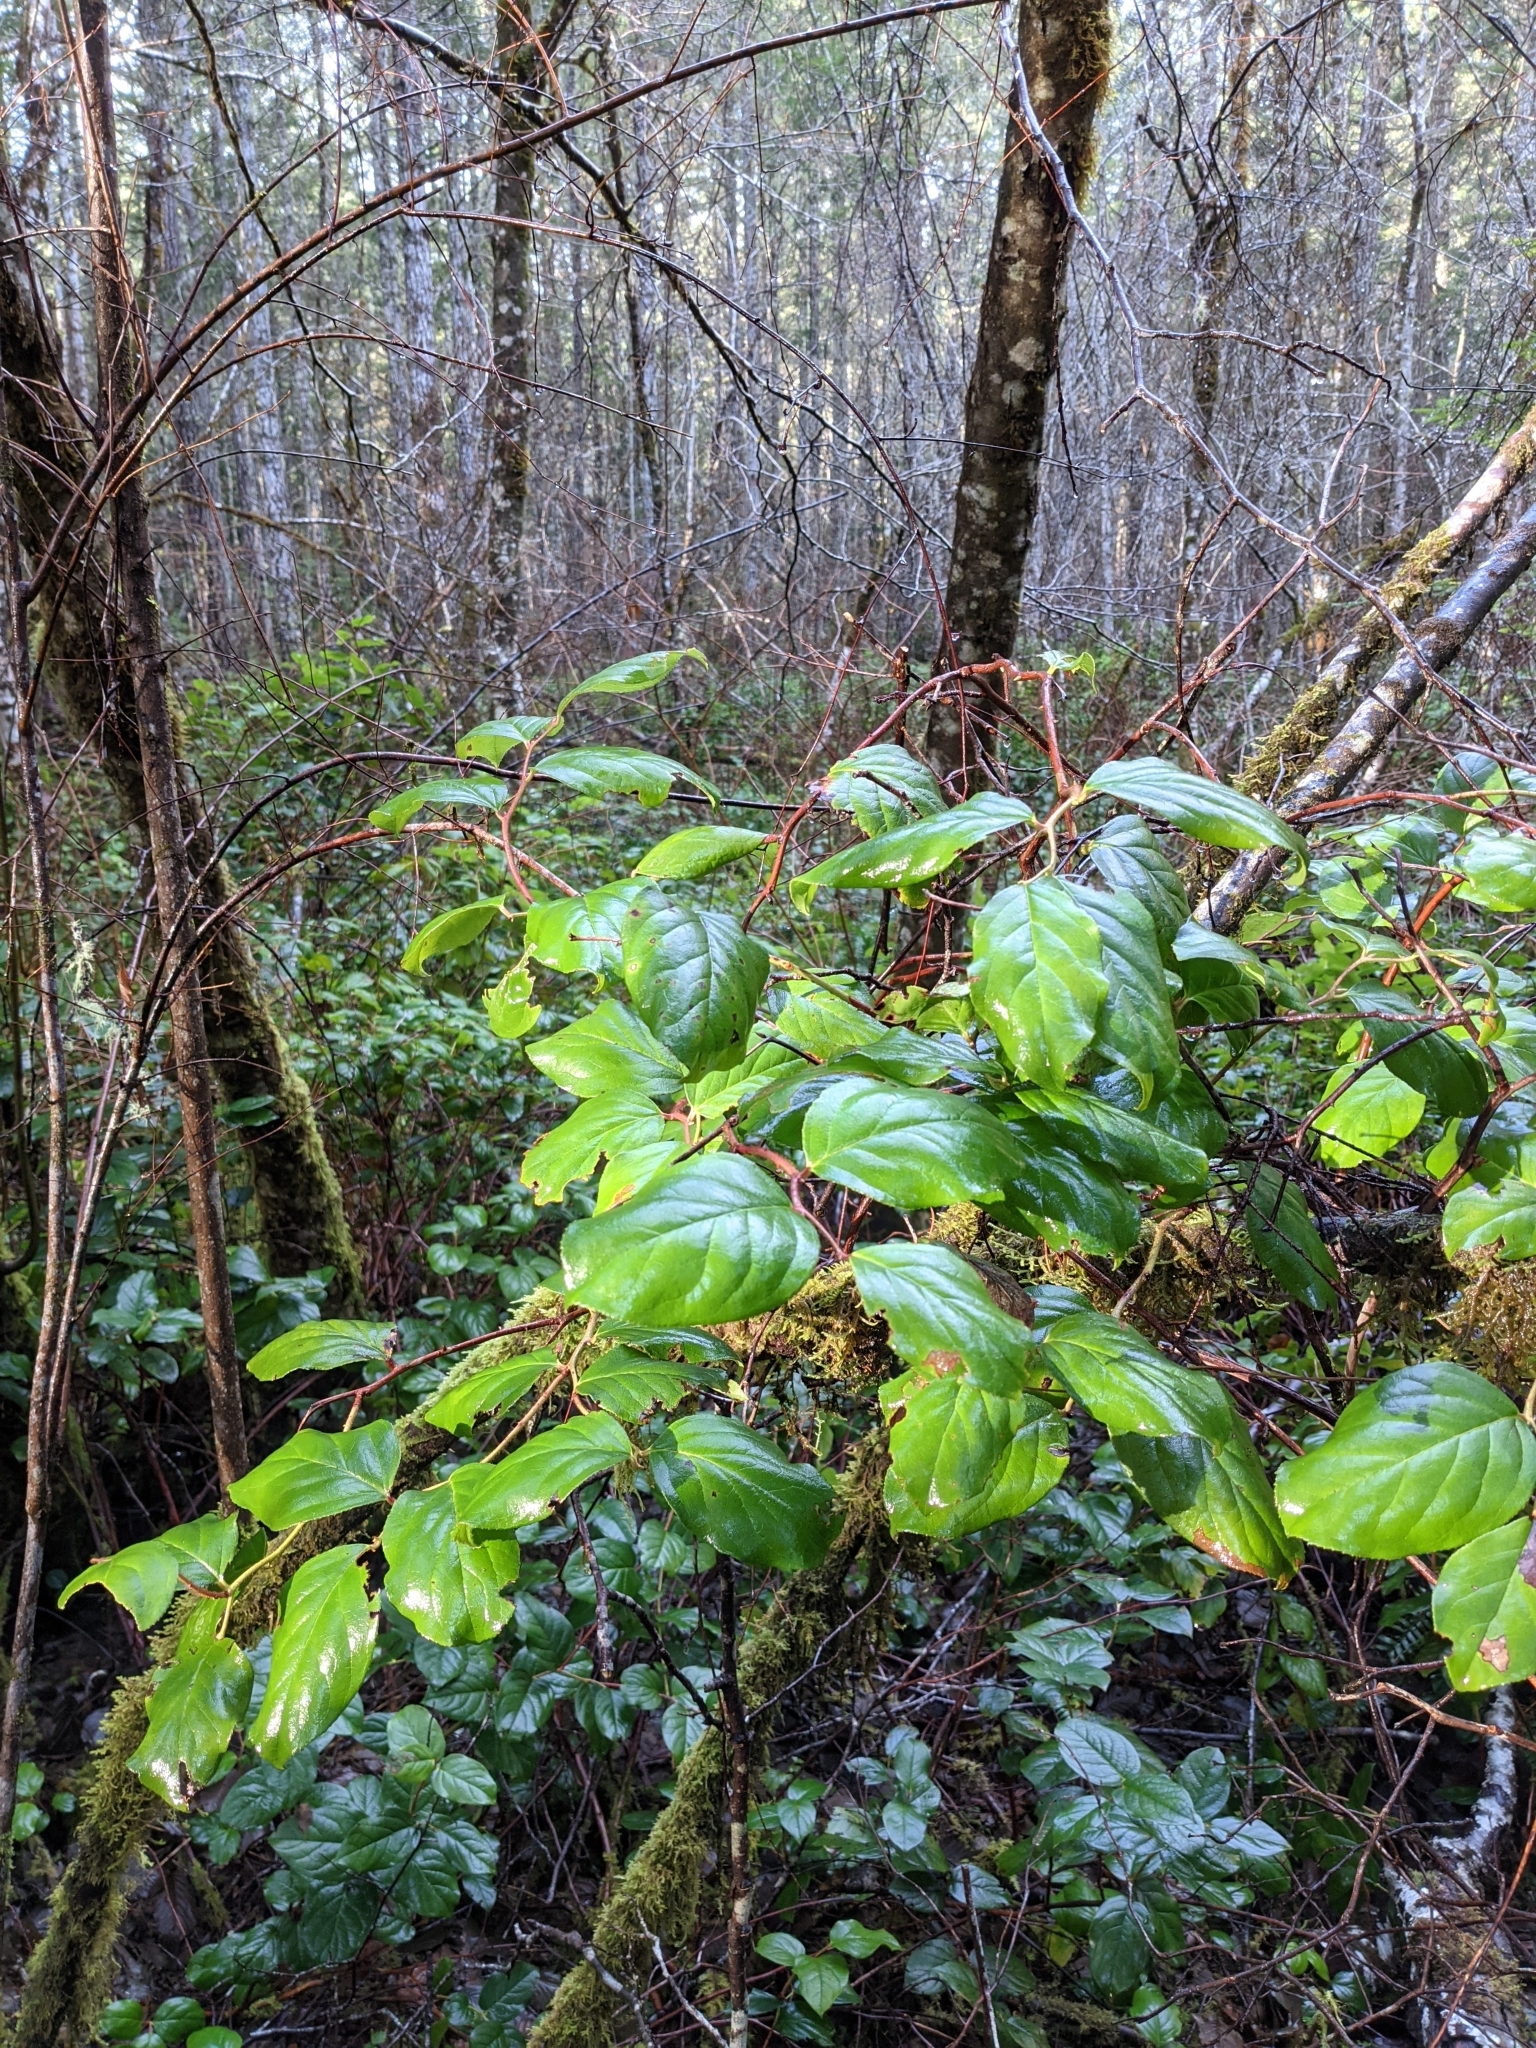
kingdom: Plantae
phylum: Tracheophyta
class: Magnoliopsida
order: Ericales
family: Ericaceae
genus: Gaultheria
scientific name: Gaultheria shallon
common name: Shallon
